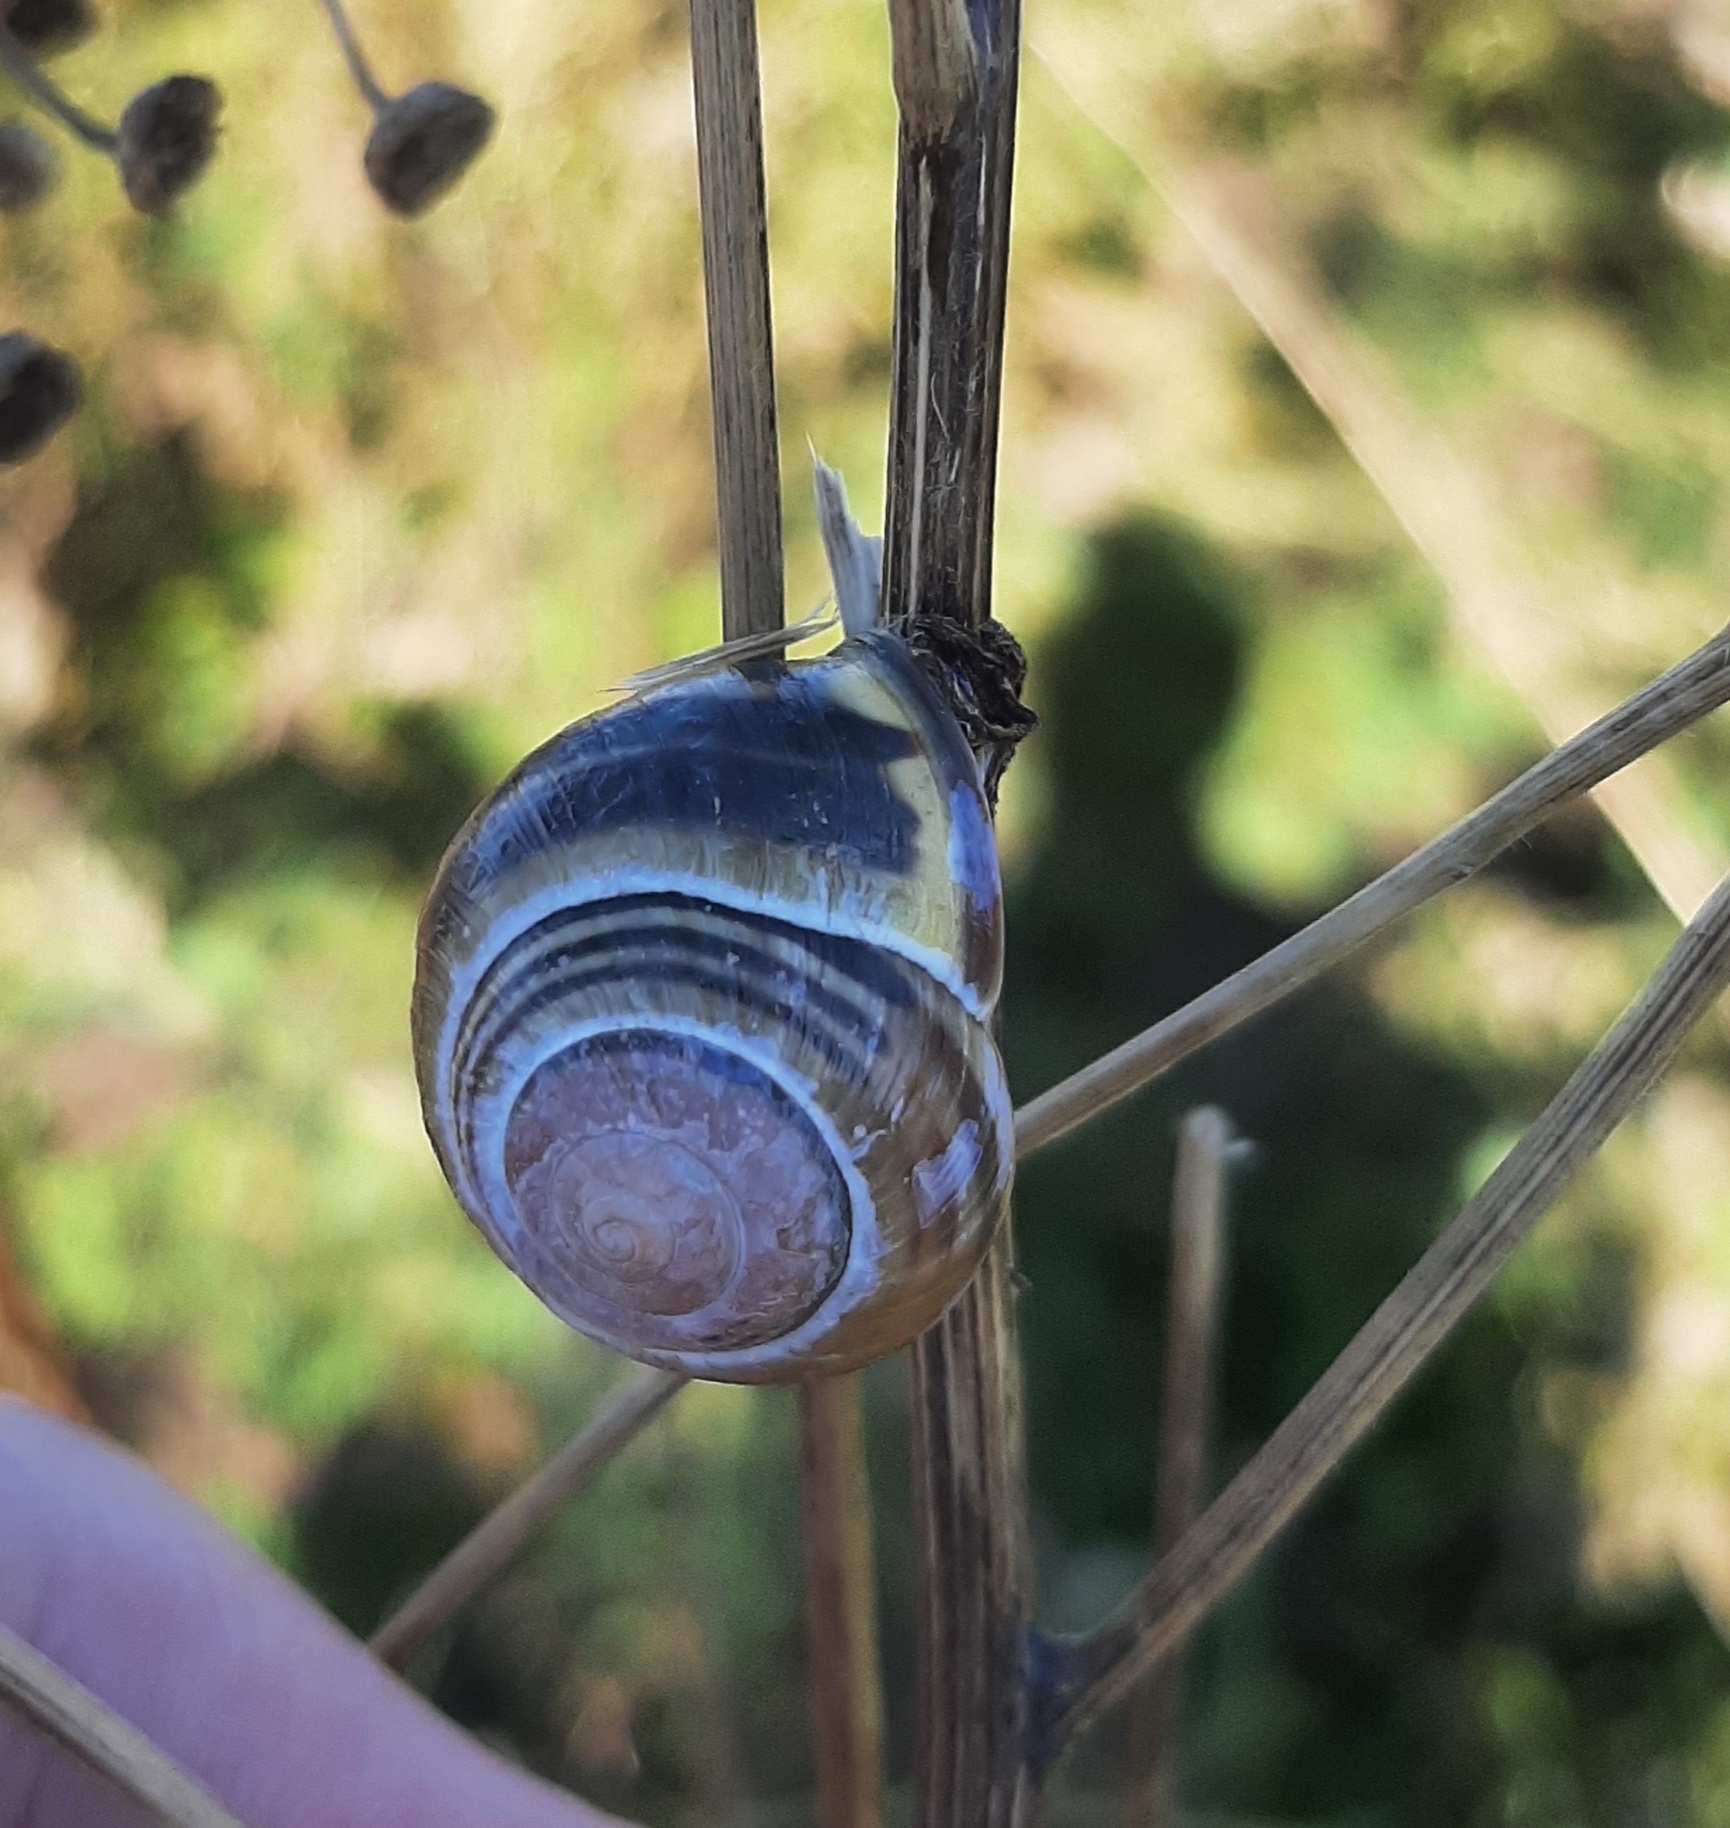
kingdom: Animalia
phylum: Mollusca
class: Gastropoda
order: Stylommatophora
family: Helicidae
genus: Cepaea
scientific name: Cepaea nemoralis
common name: Grovesnail
